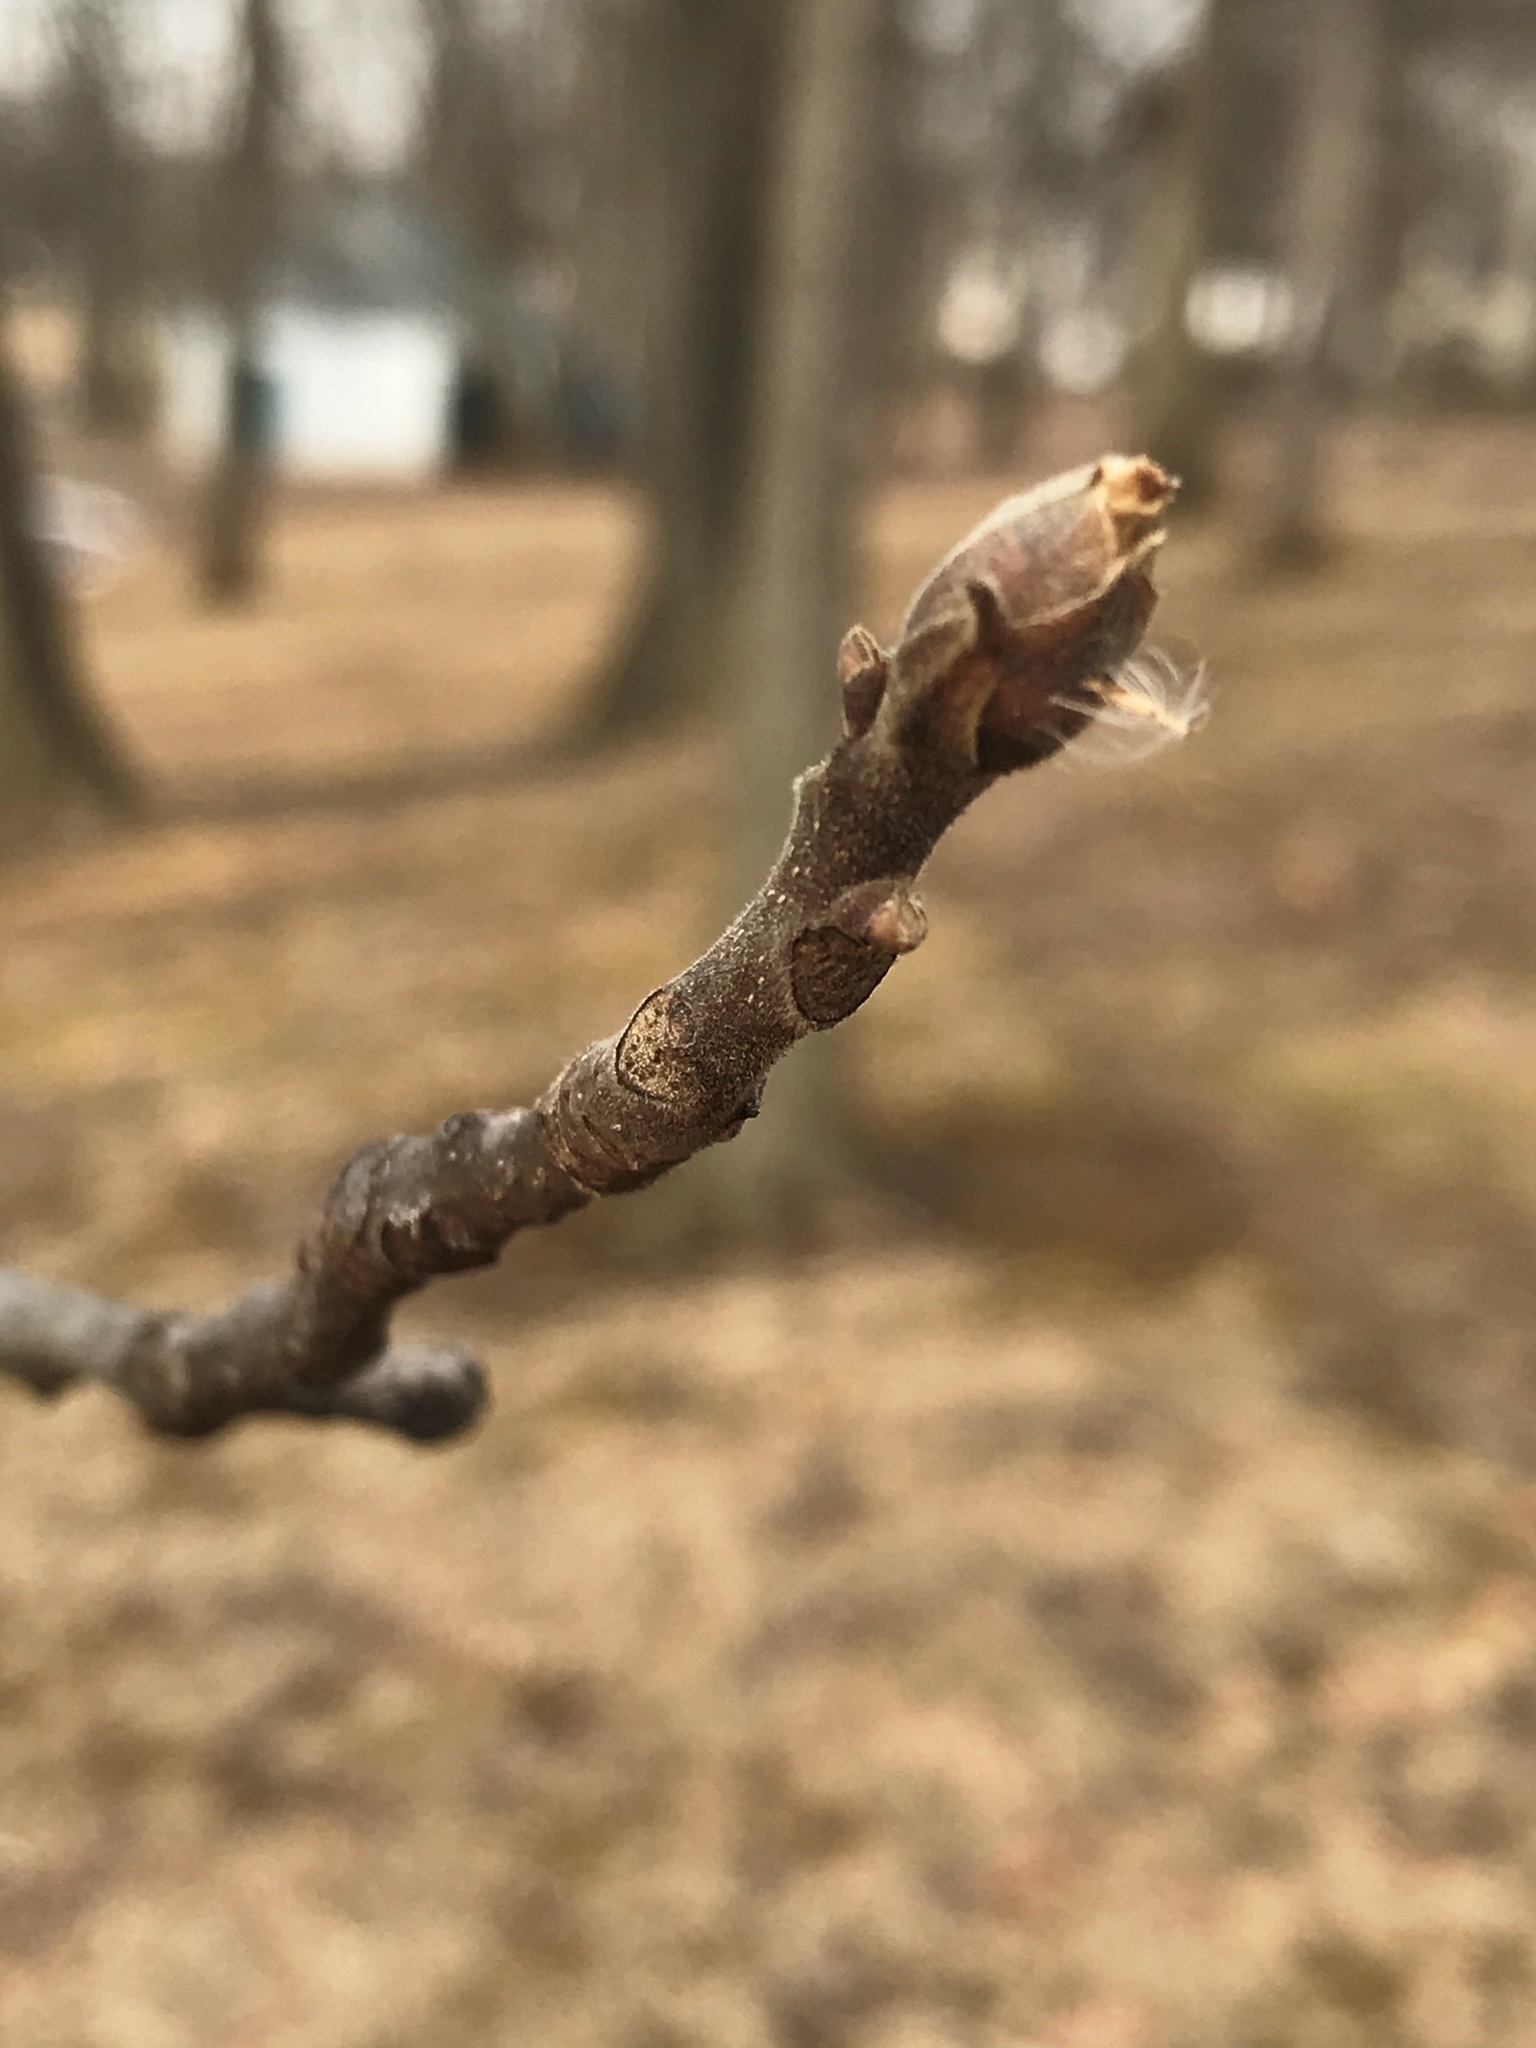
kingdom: Plantae
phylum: Tracheophyta
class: Magnoliopsida
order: Fagales
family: Juglandaceae
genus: Carya
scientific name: Carya ovata
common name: Shagbark hickory
